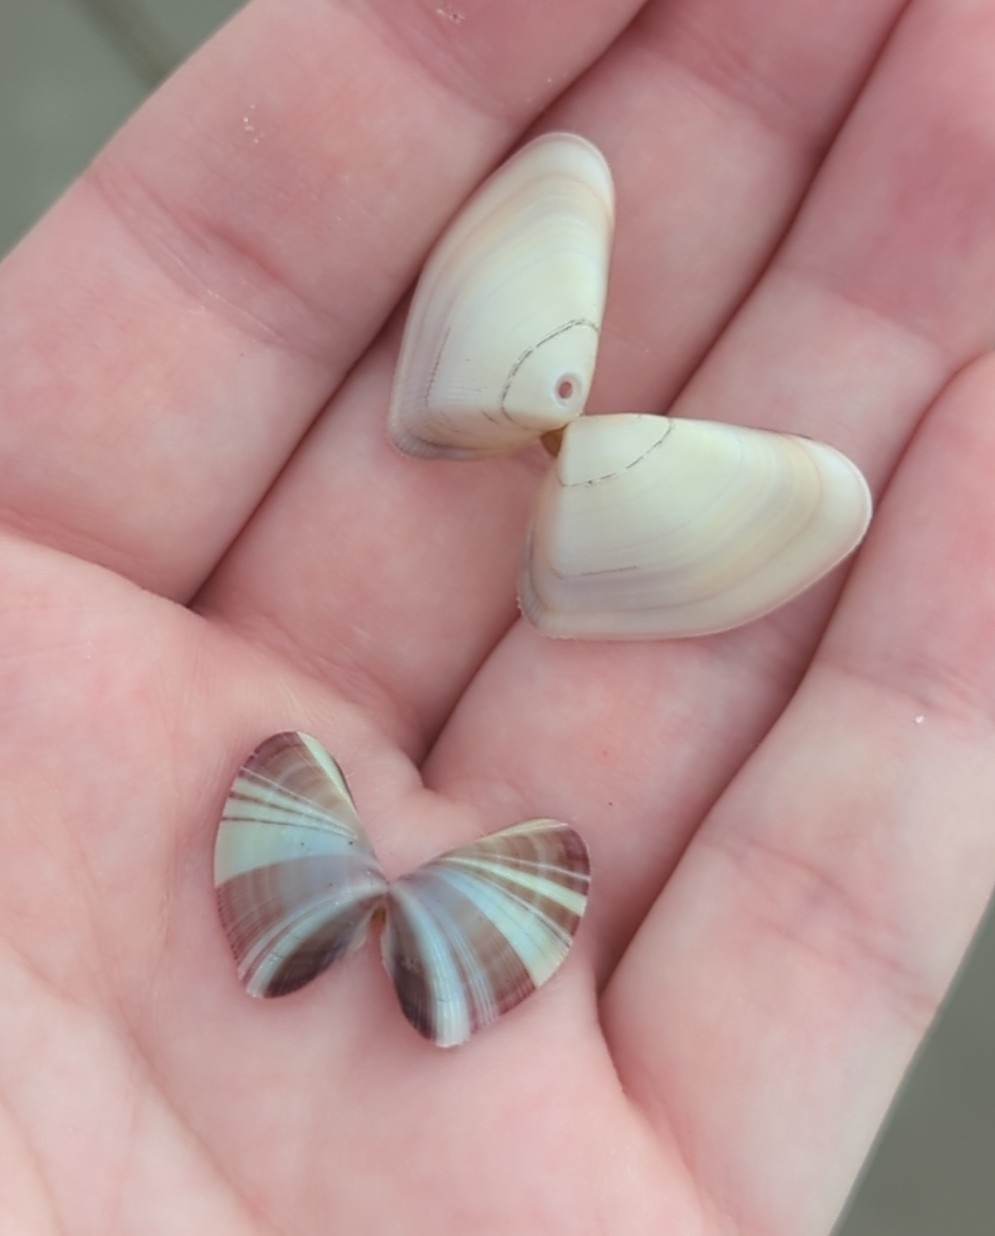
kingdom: Animalia
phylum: Mollusca
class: Bivalvia
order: Cardiida
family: Donacidae
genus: Donax
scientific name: Donax variabilis
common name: Butterfly shell
